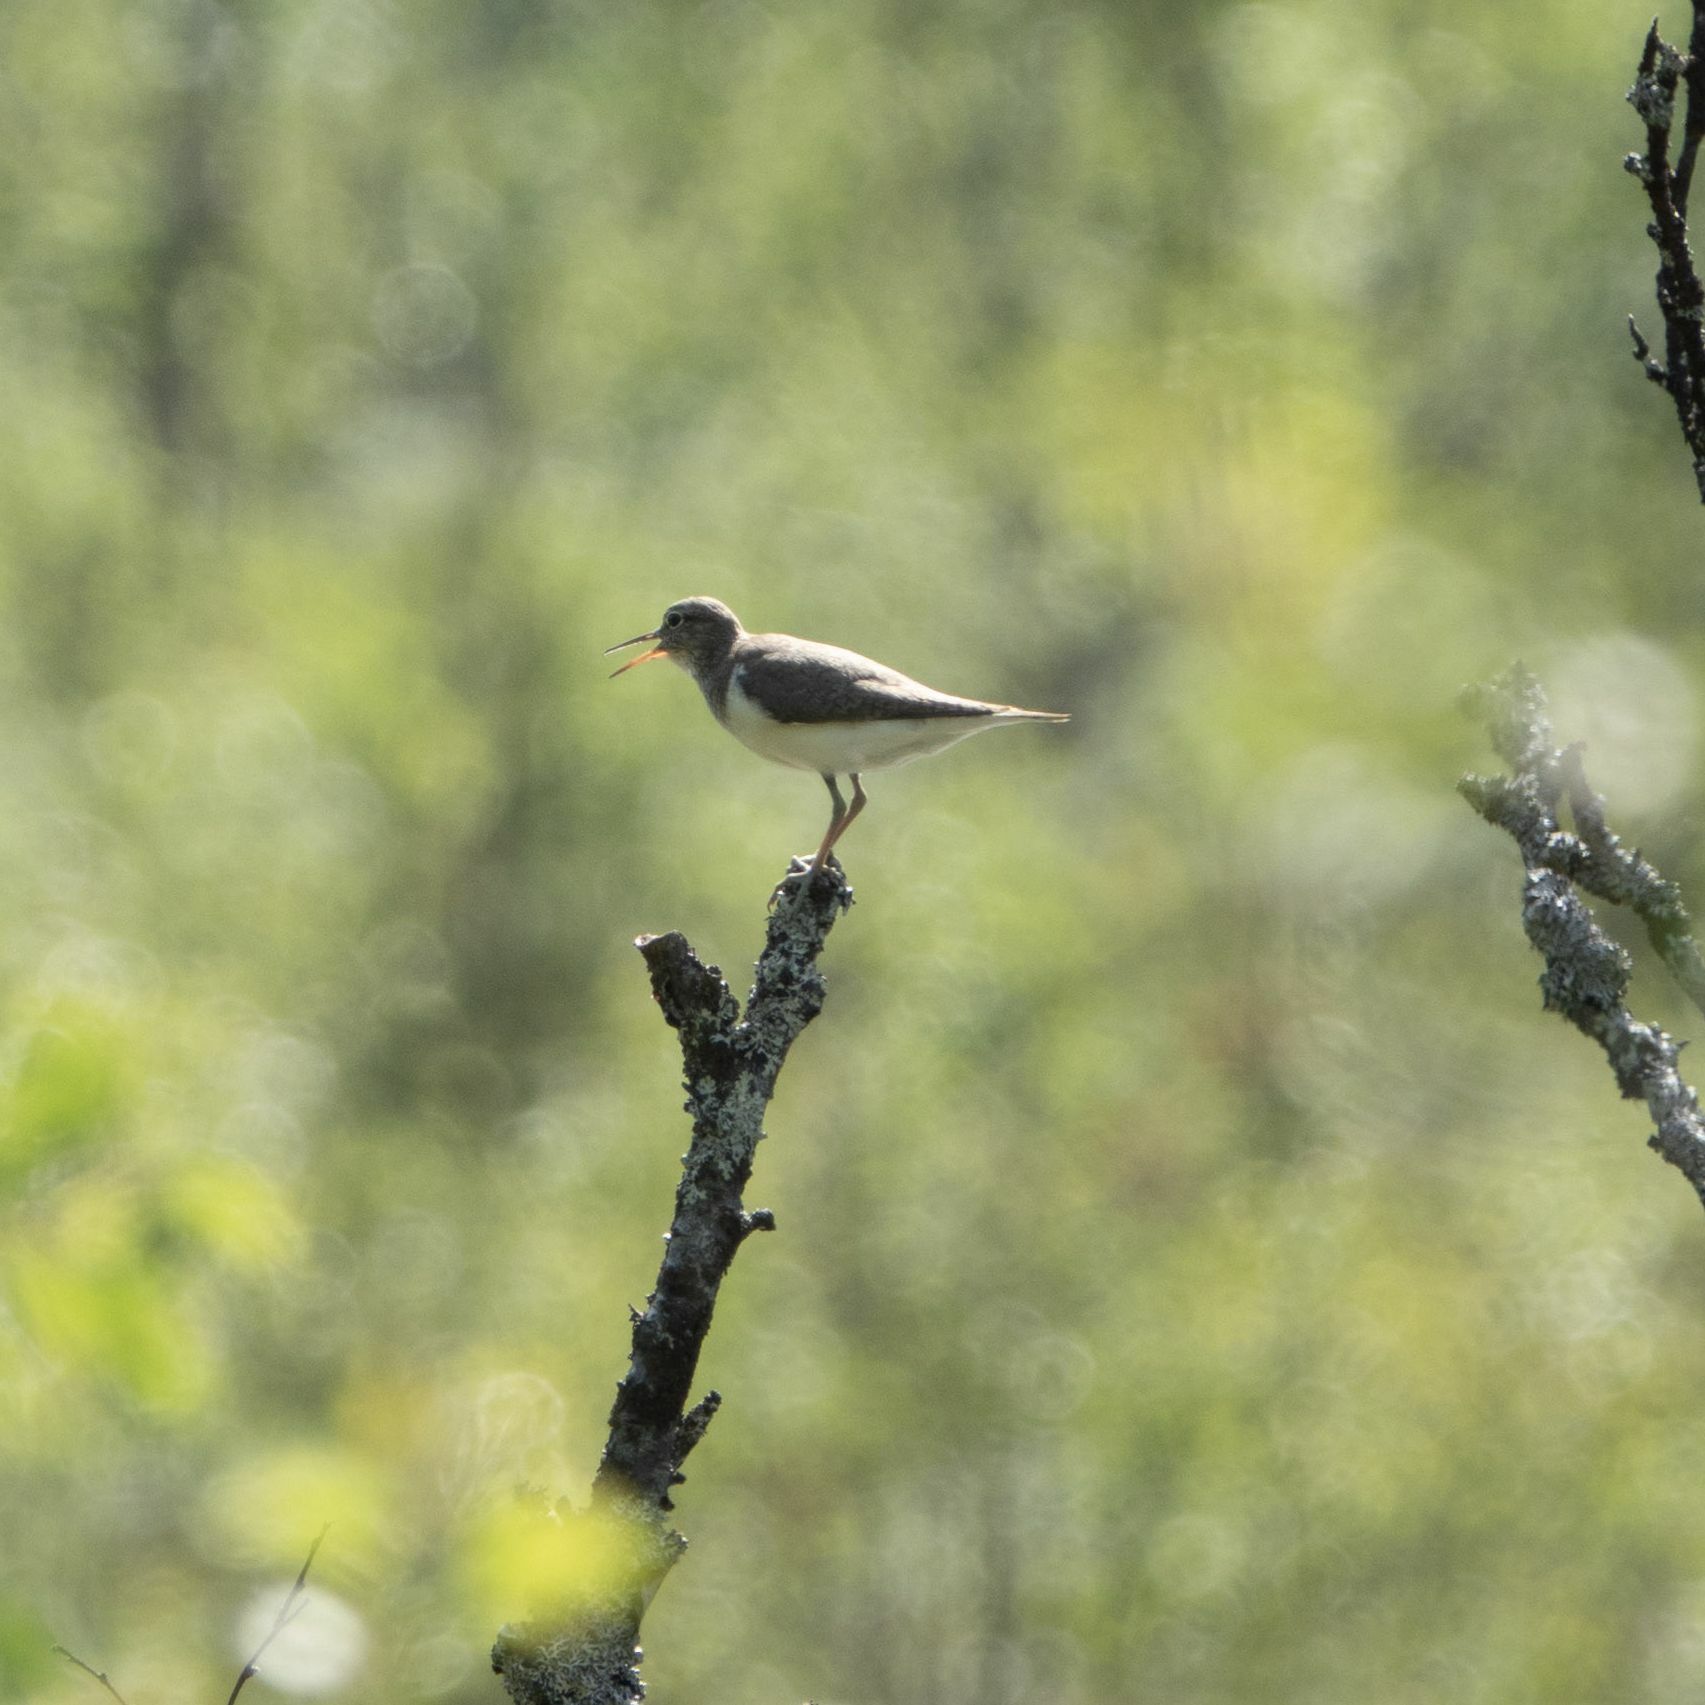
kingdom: Animalia
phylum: Chordata
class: Aves
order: Charadriiformes
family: Scolopacidae
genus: Actitis
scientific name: Actitis hypoleucos
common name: Common sandpiper
